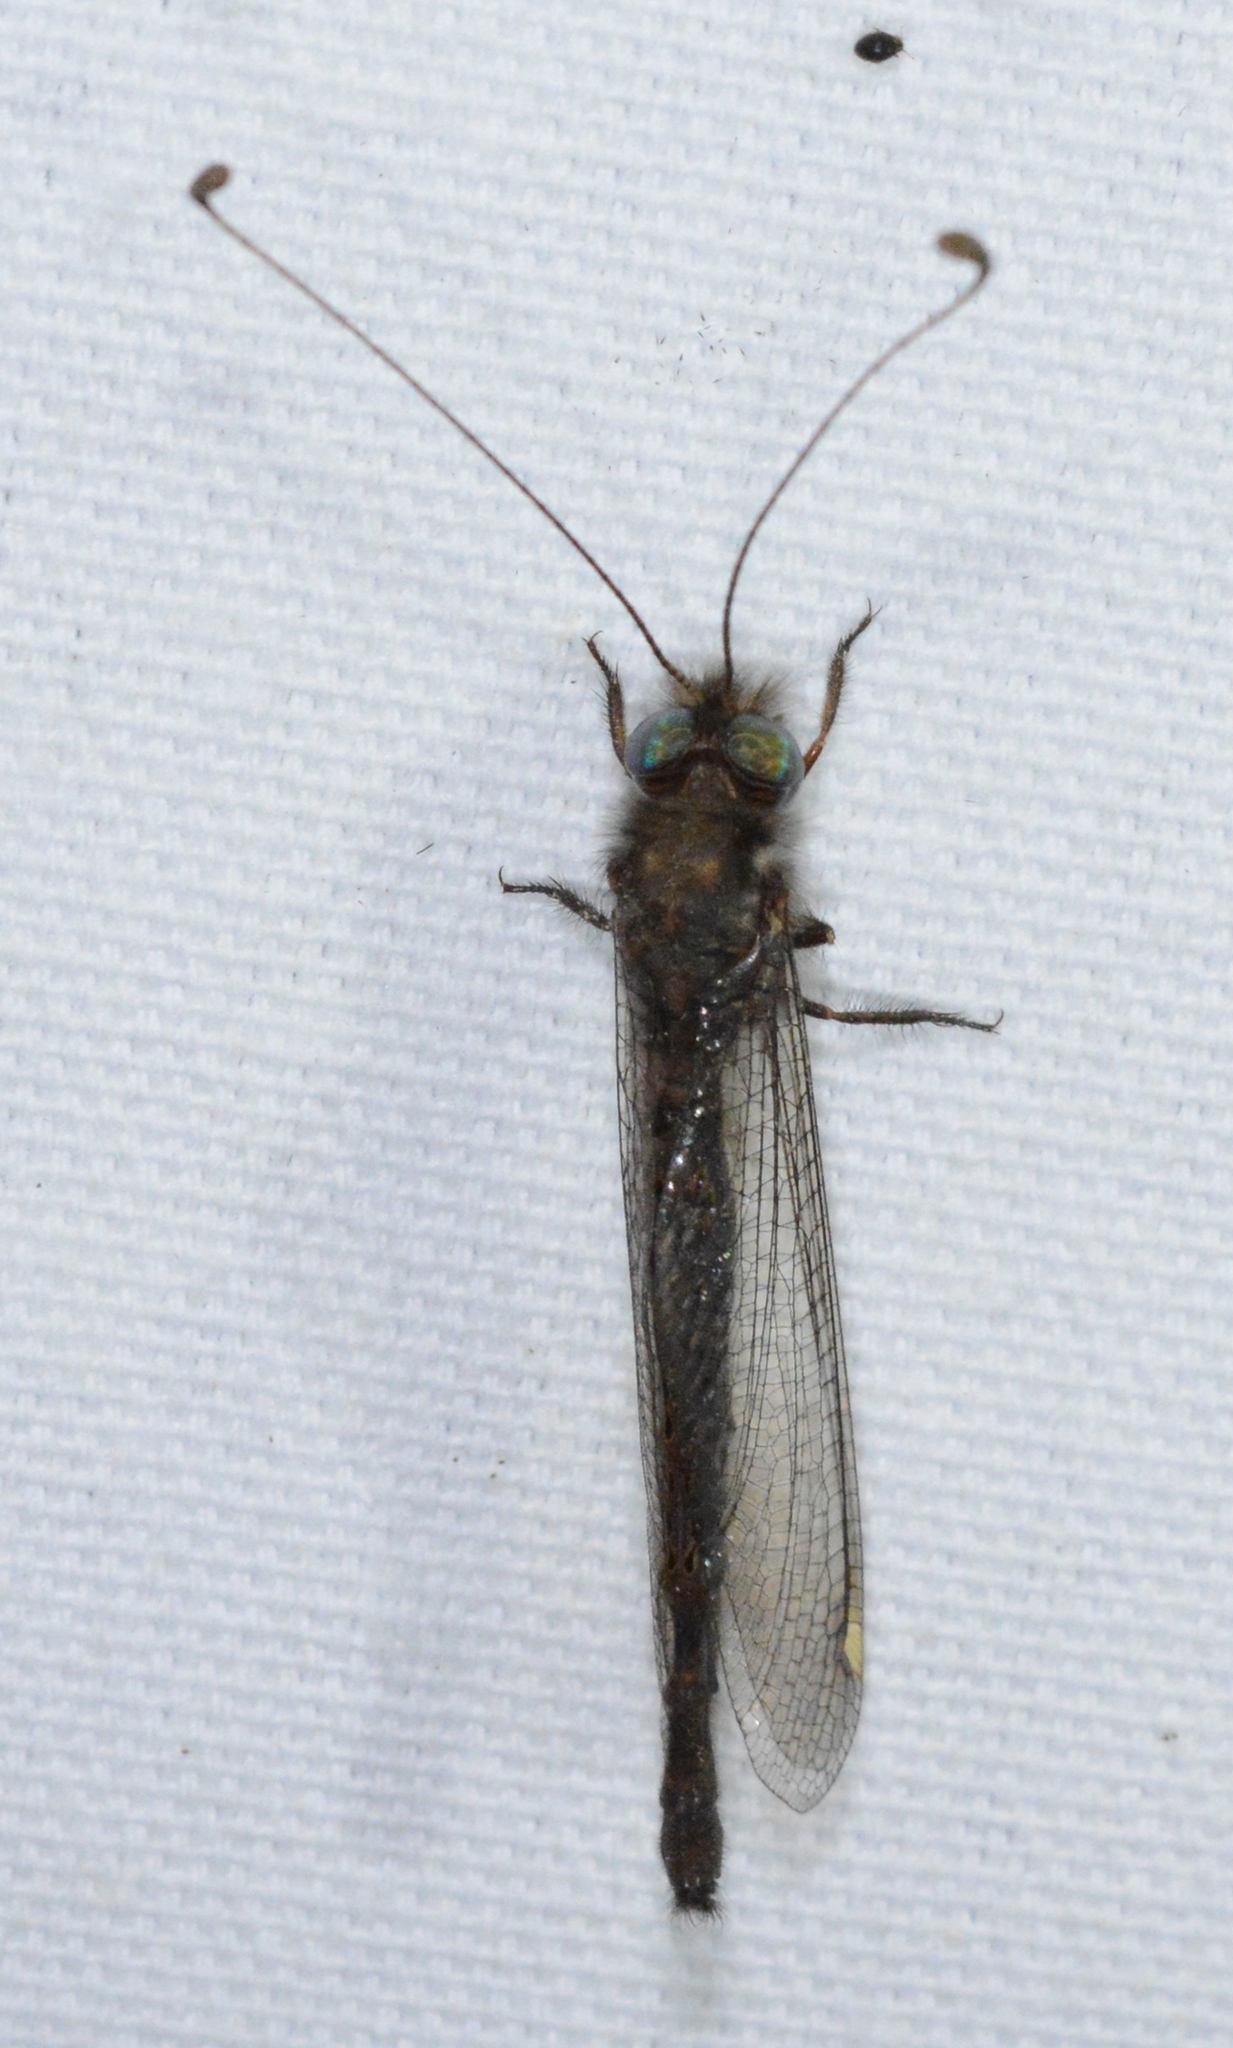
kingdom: Animalia
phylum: Arthropoda
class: Insecta
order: Neuroptera
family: Ascalaphidae
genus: Ululodes
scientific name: Ululodes quadripunctatus
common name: Four-spotted owlfly
